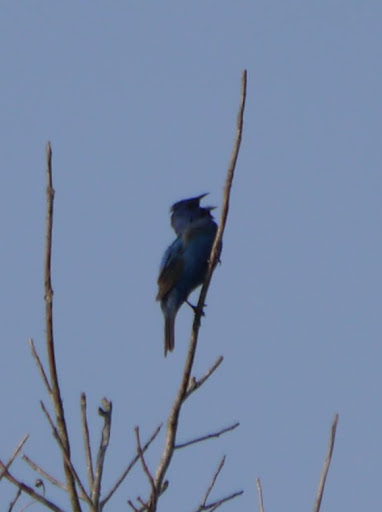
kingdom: Animalia
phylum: Chordata
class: Aves
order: Passeriformes
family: Cardinalidae
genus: Passerina
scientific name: Passerina cyanea
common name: Indigo bunting
